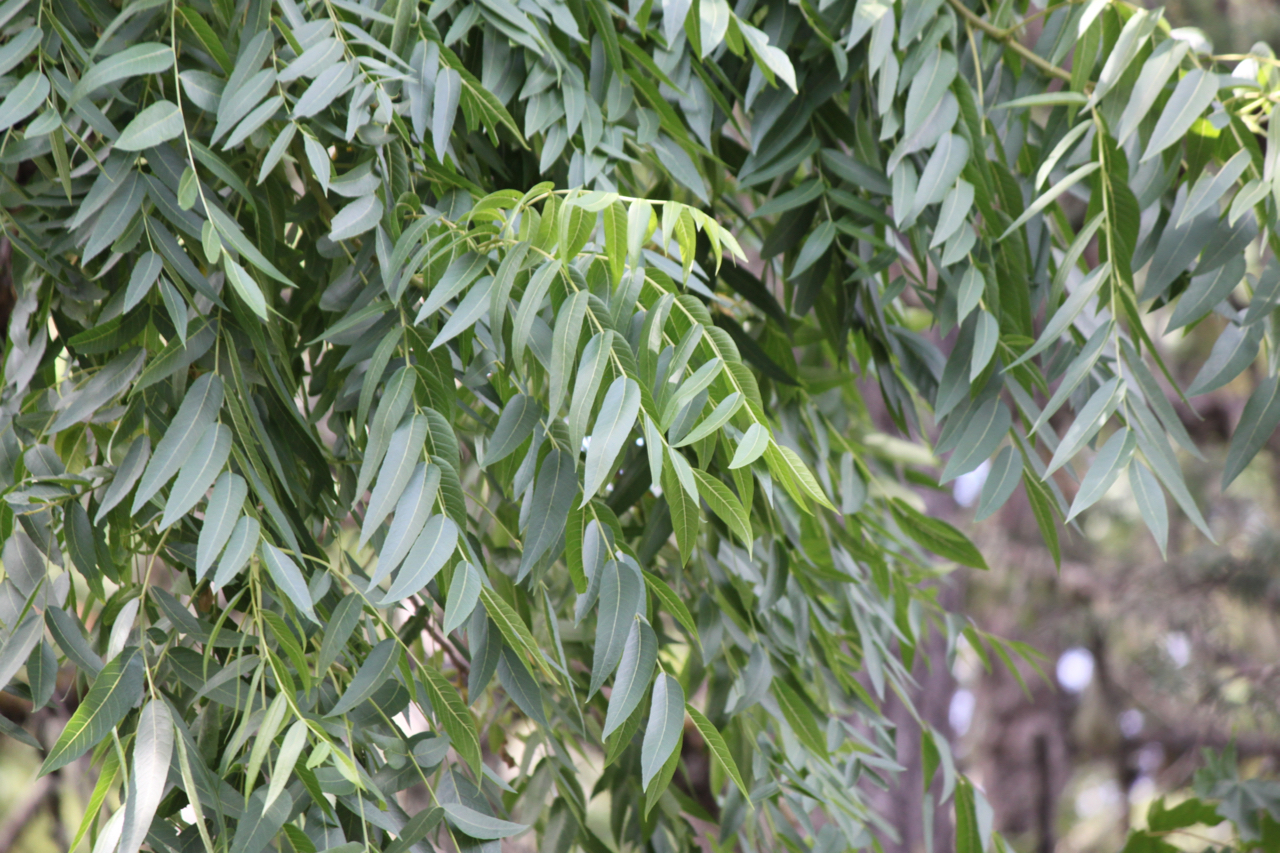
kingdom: Plantae
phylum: Tracheophyta
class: Magnoliopsida
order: Fagales
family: Juglandaceae
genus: Juglans
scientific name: Juglans nigra
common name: Black walnut
